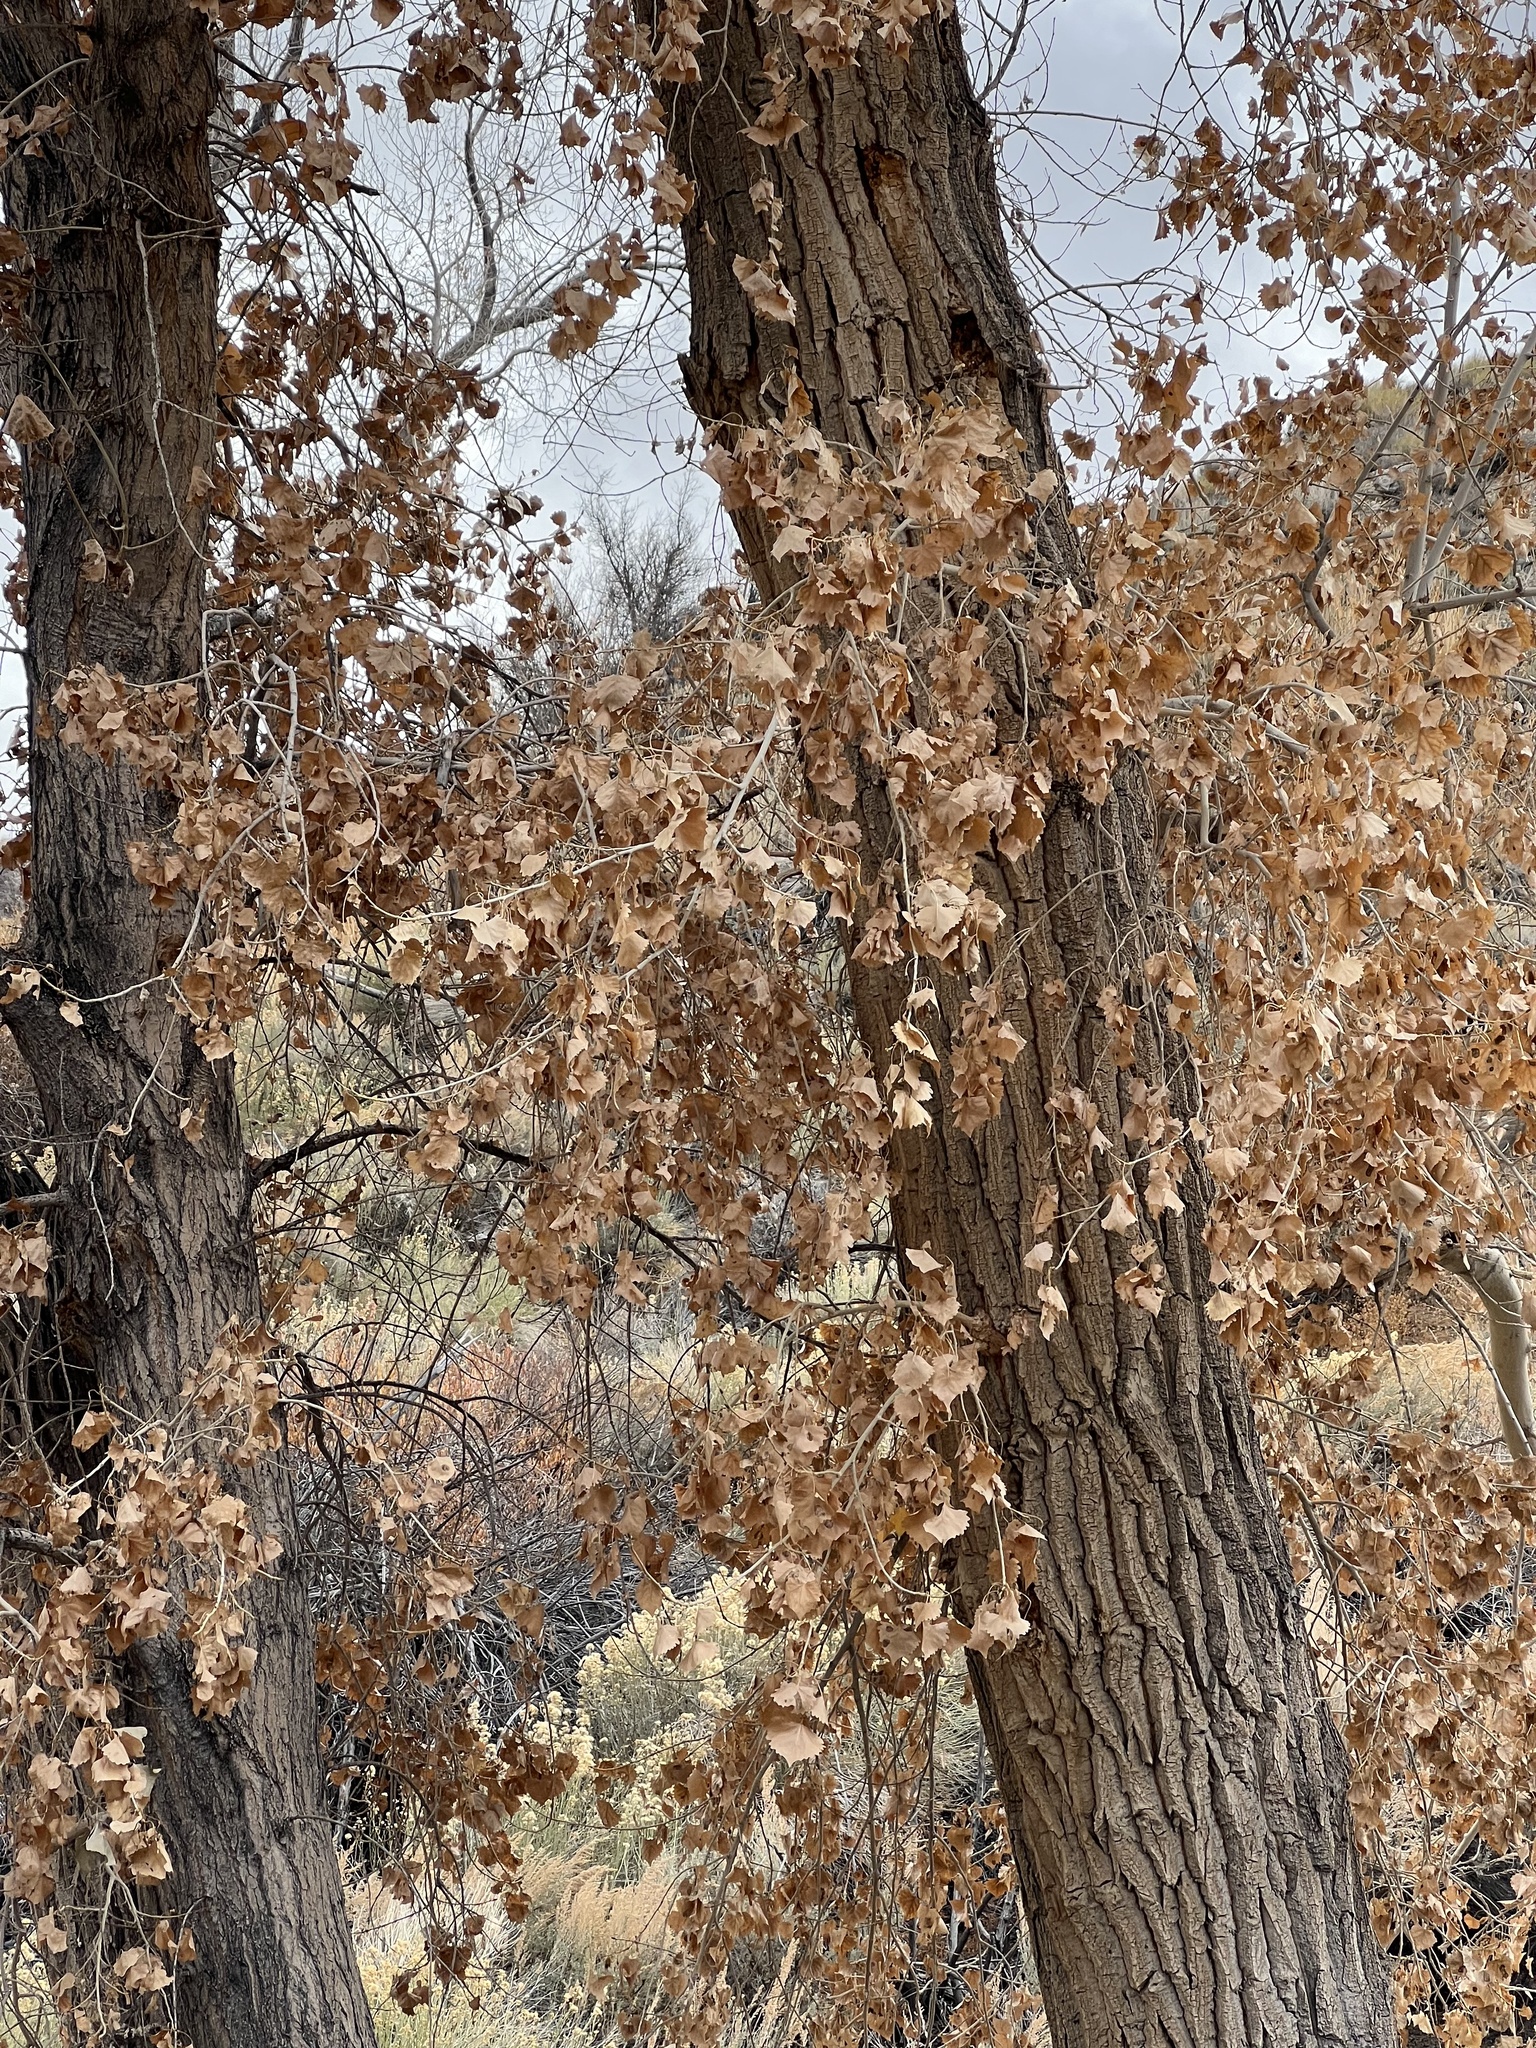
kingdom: Plantae
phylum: Tracheophyta
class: Magnoliopsida
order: Malpighiales
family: Salicaceae
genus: Populus
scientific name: Populus fremontii
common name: Fremont's cottonwood
